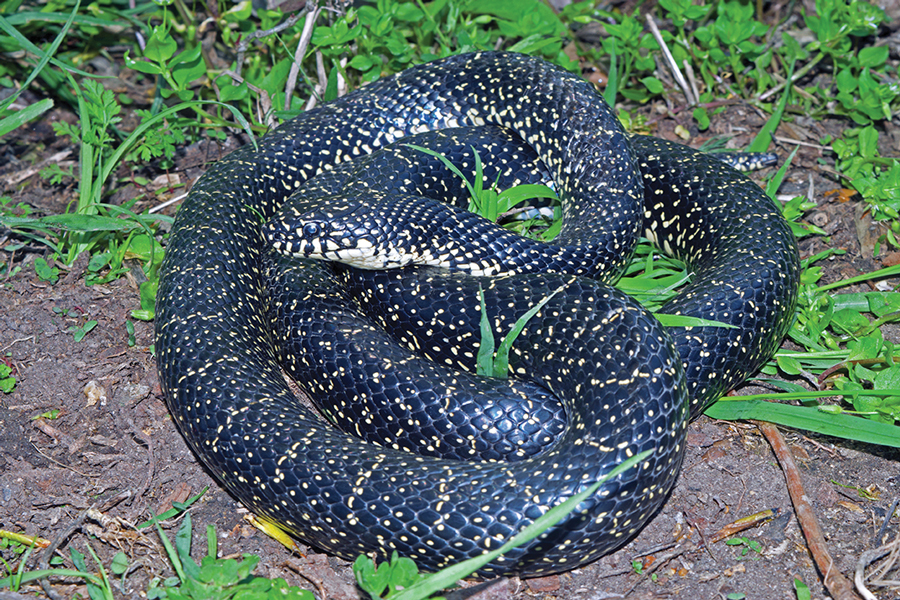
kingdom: Animalia
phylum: Chordata
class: Squamata
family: Colubridae
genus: Lampropeltis
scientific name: Lampropeltis nigra
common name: Black kingsnake
